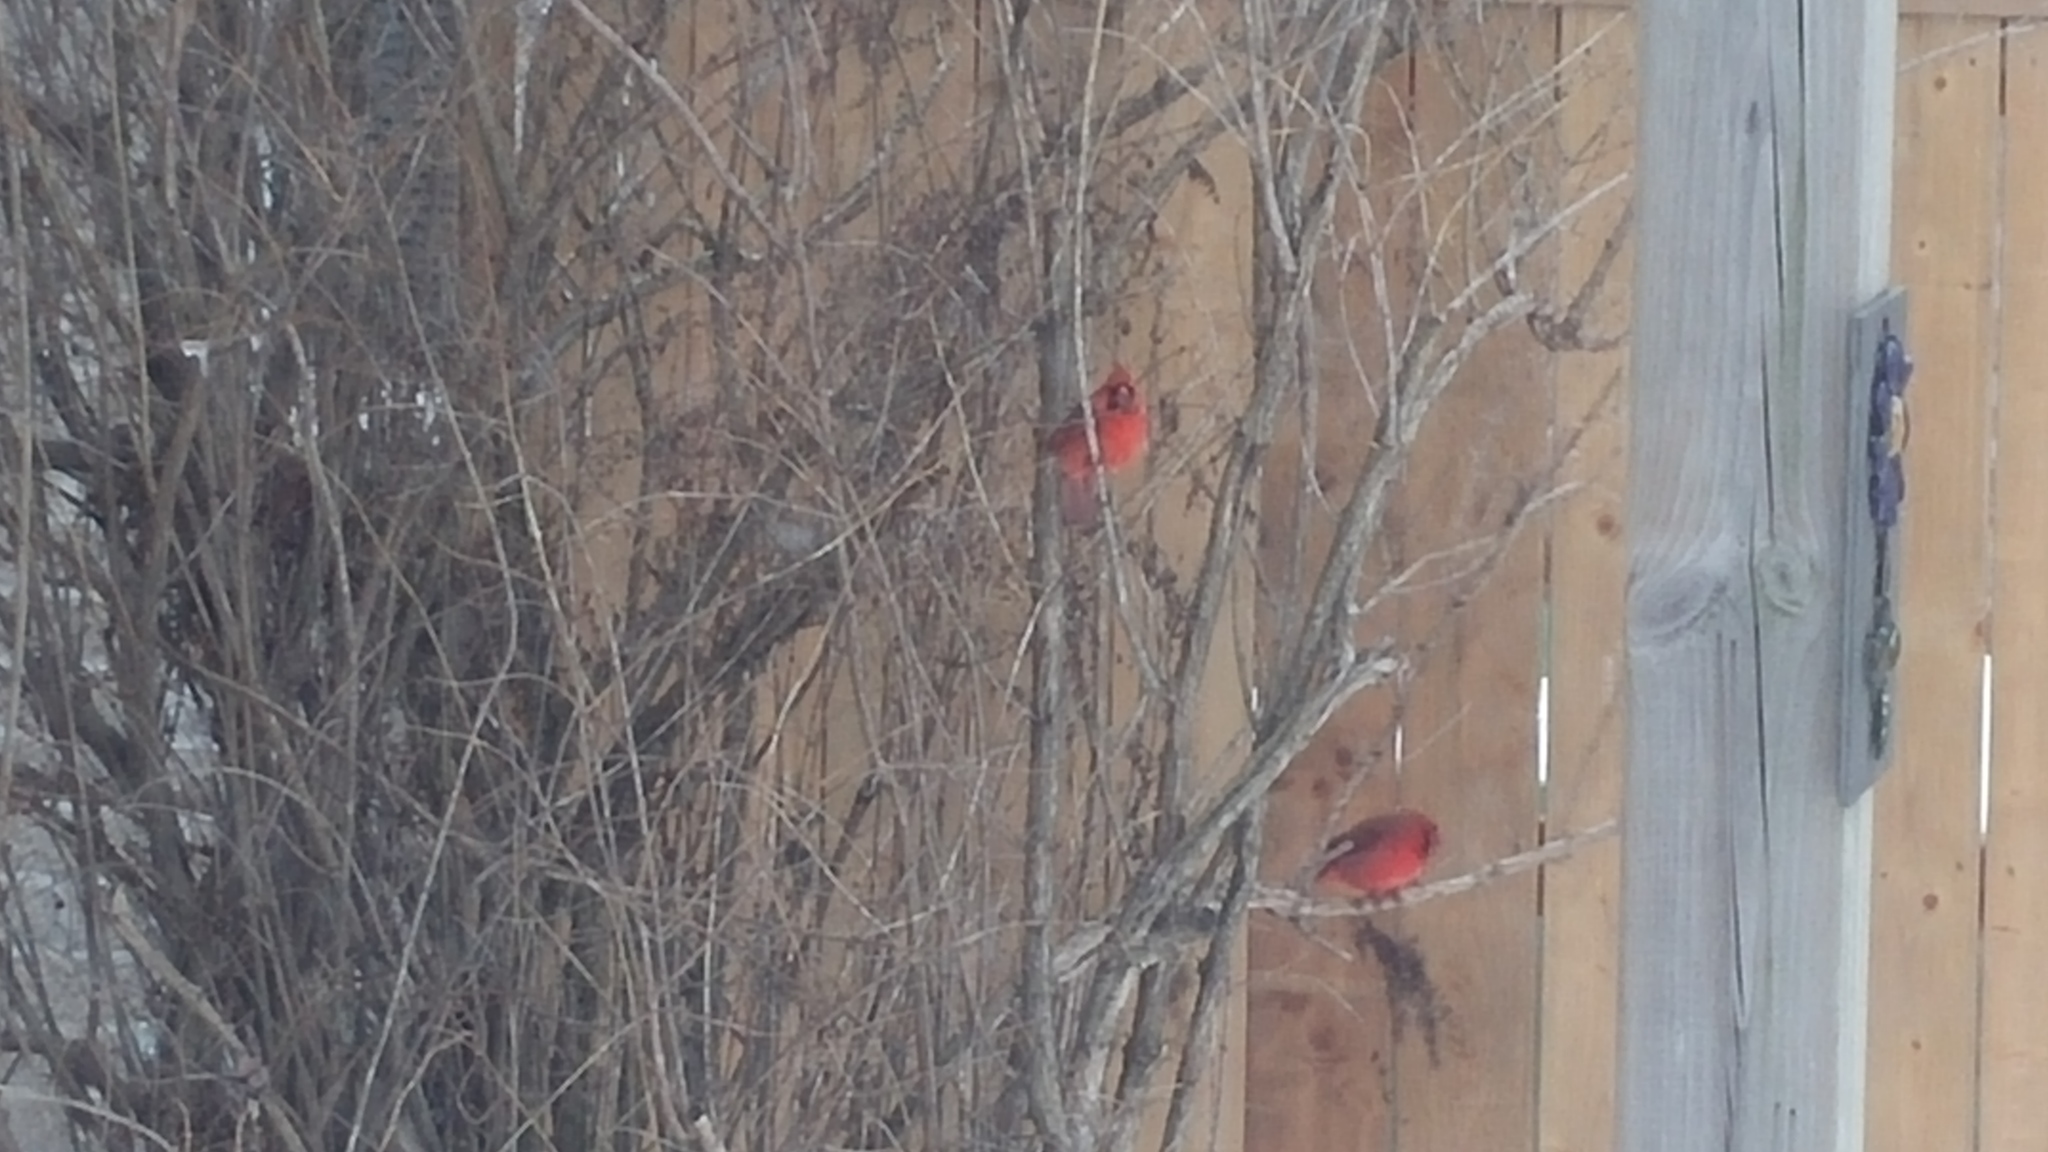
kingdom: Animalia
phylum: Chordata
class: Aves
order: Passeriformes
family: Cardinalidae
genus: Cardinalis
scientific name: Cardinalis cardinalis
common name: Northern cardinal
